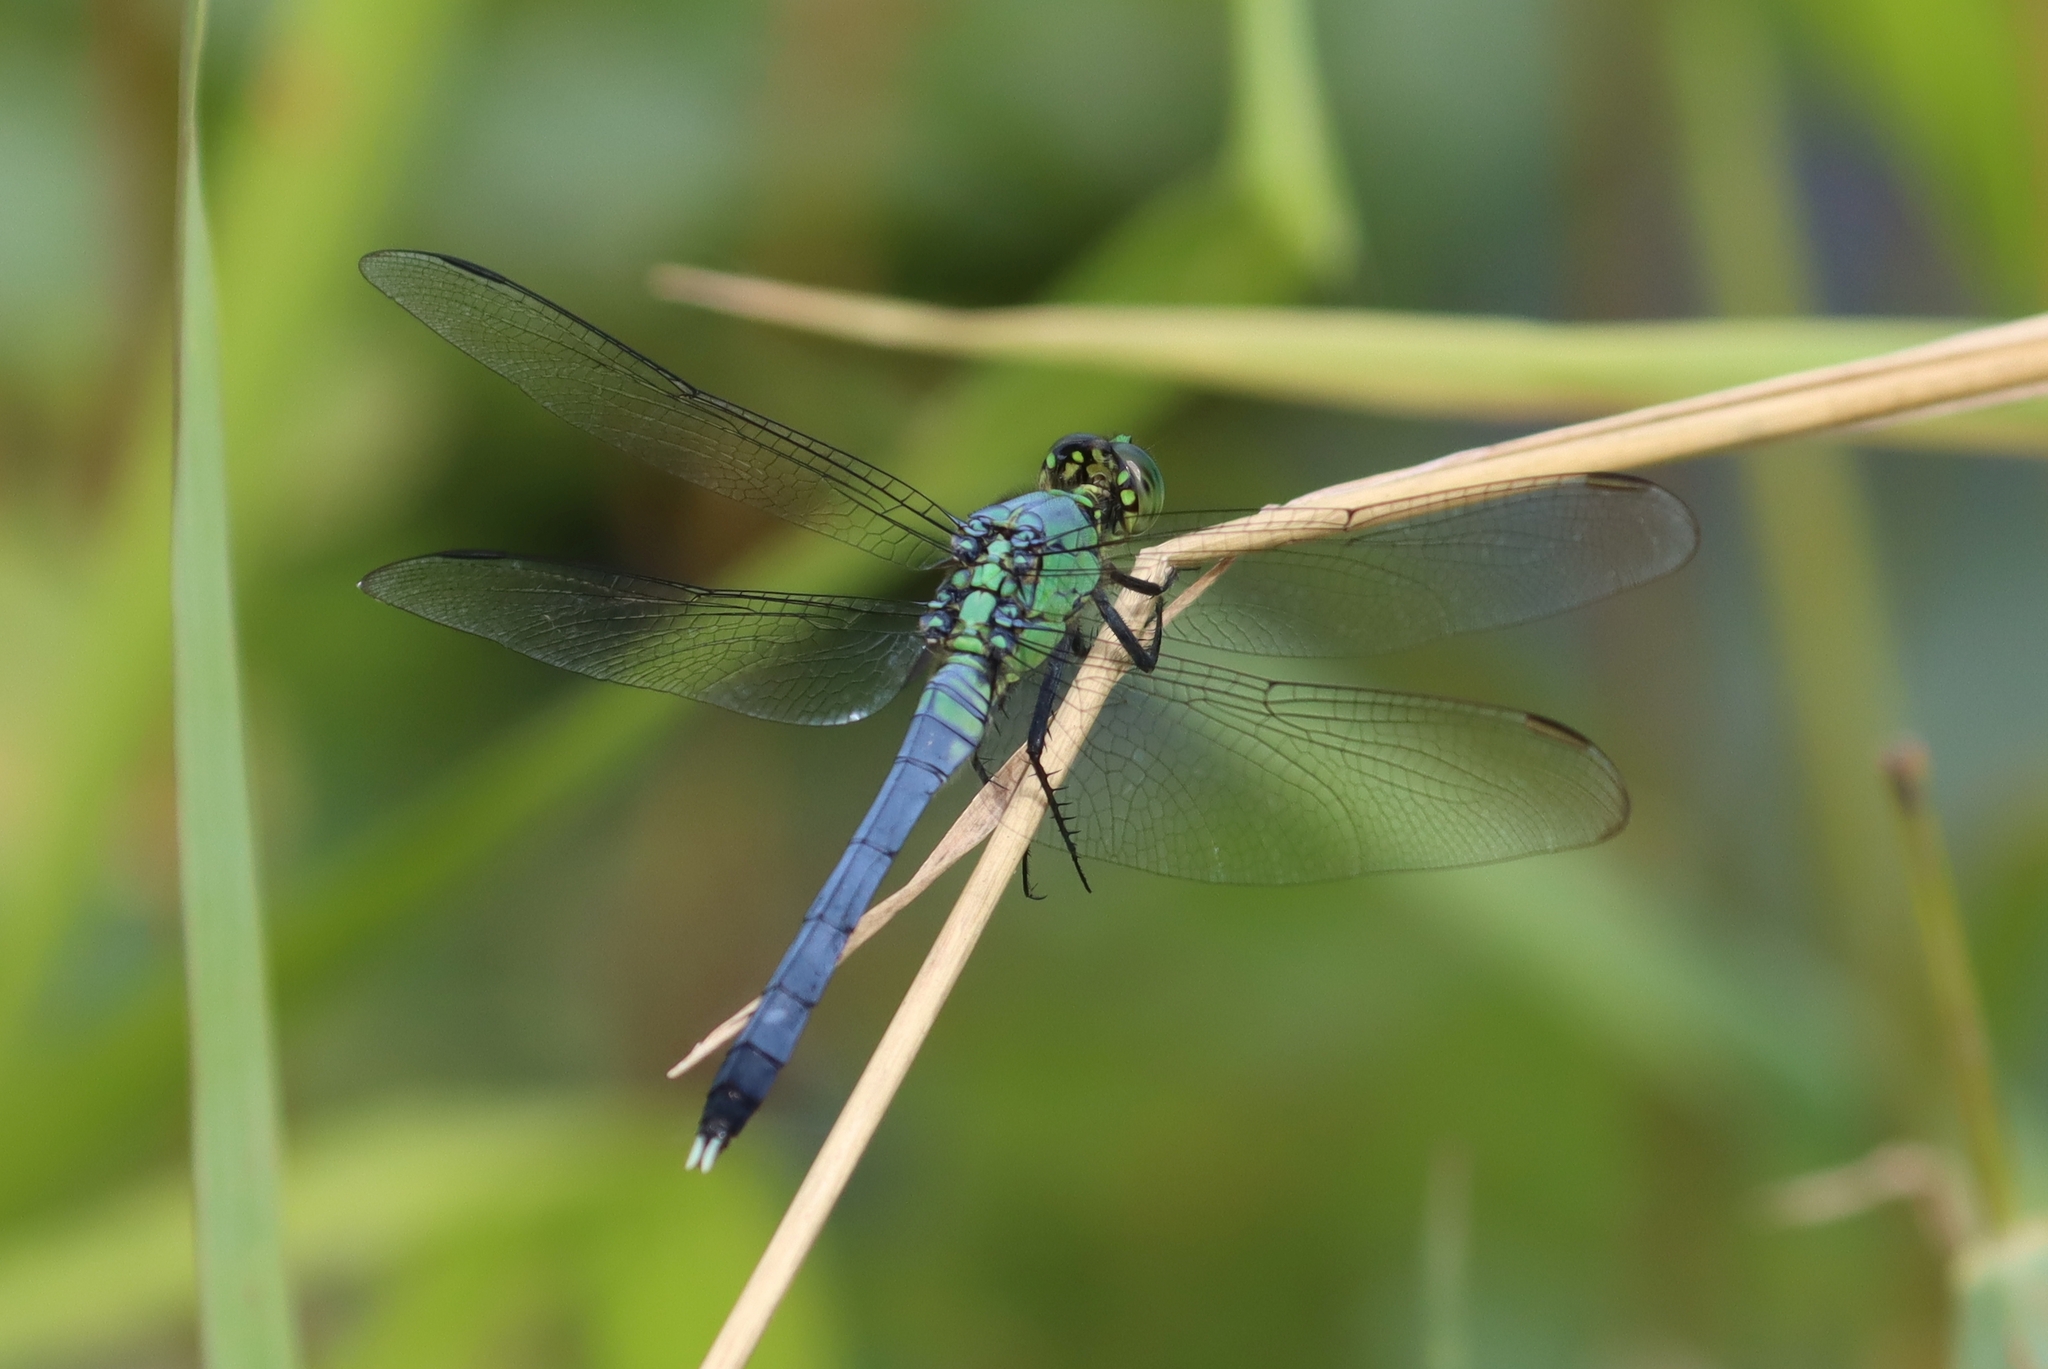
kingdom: Animalia
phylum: Arthropoda
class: Insecta
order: Odonata
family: Libellulidae
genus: Erythemis
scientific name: Erythemis simplicicollis
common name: Eastern pondhawk
